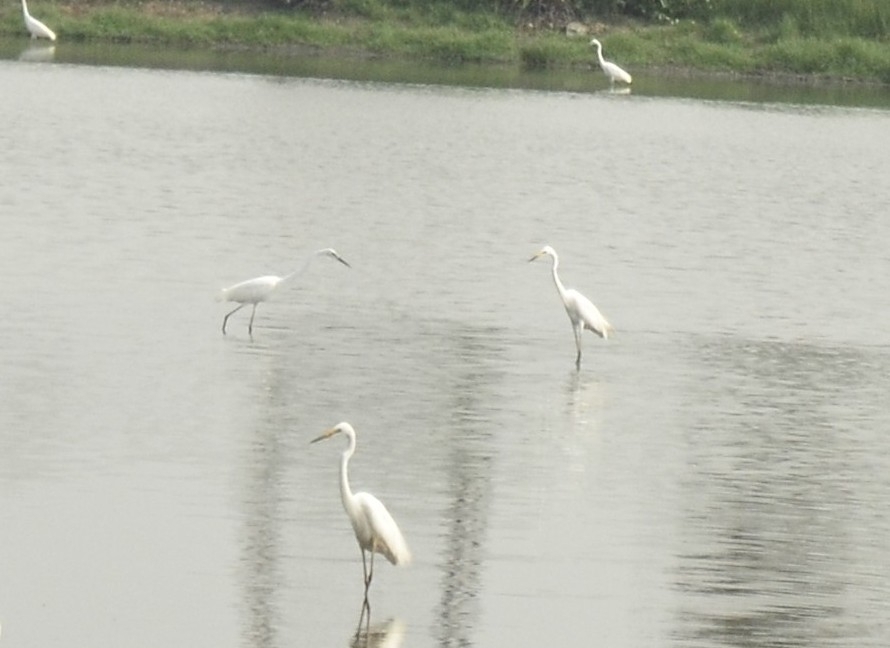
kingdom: Animalia
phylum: Chordata
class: Aves
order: Pelecaniformes
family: Ardeidae
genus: Ardea
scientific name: Ardea alba
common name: Great egret
